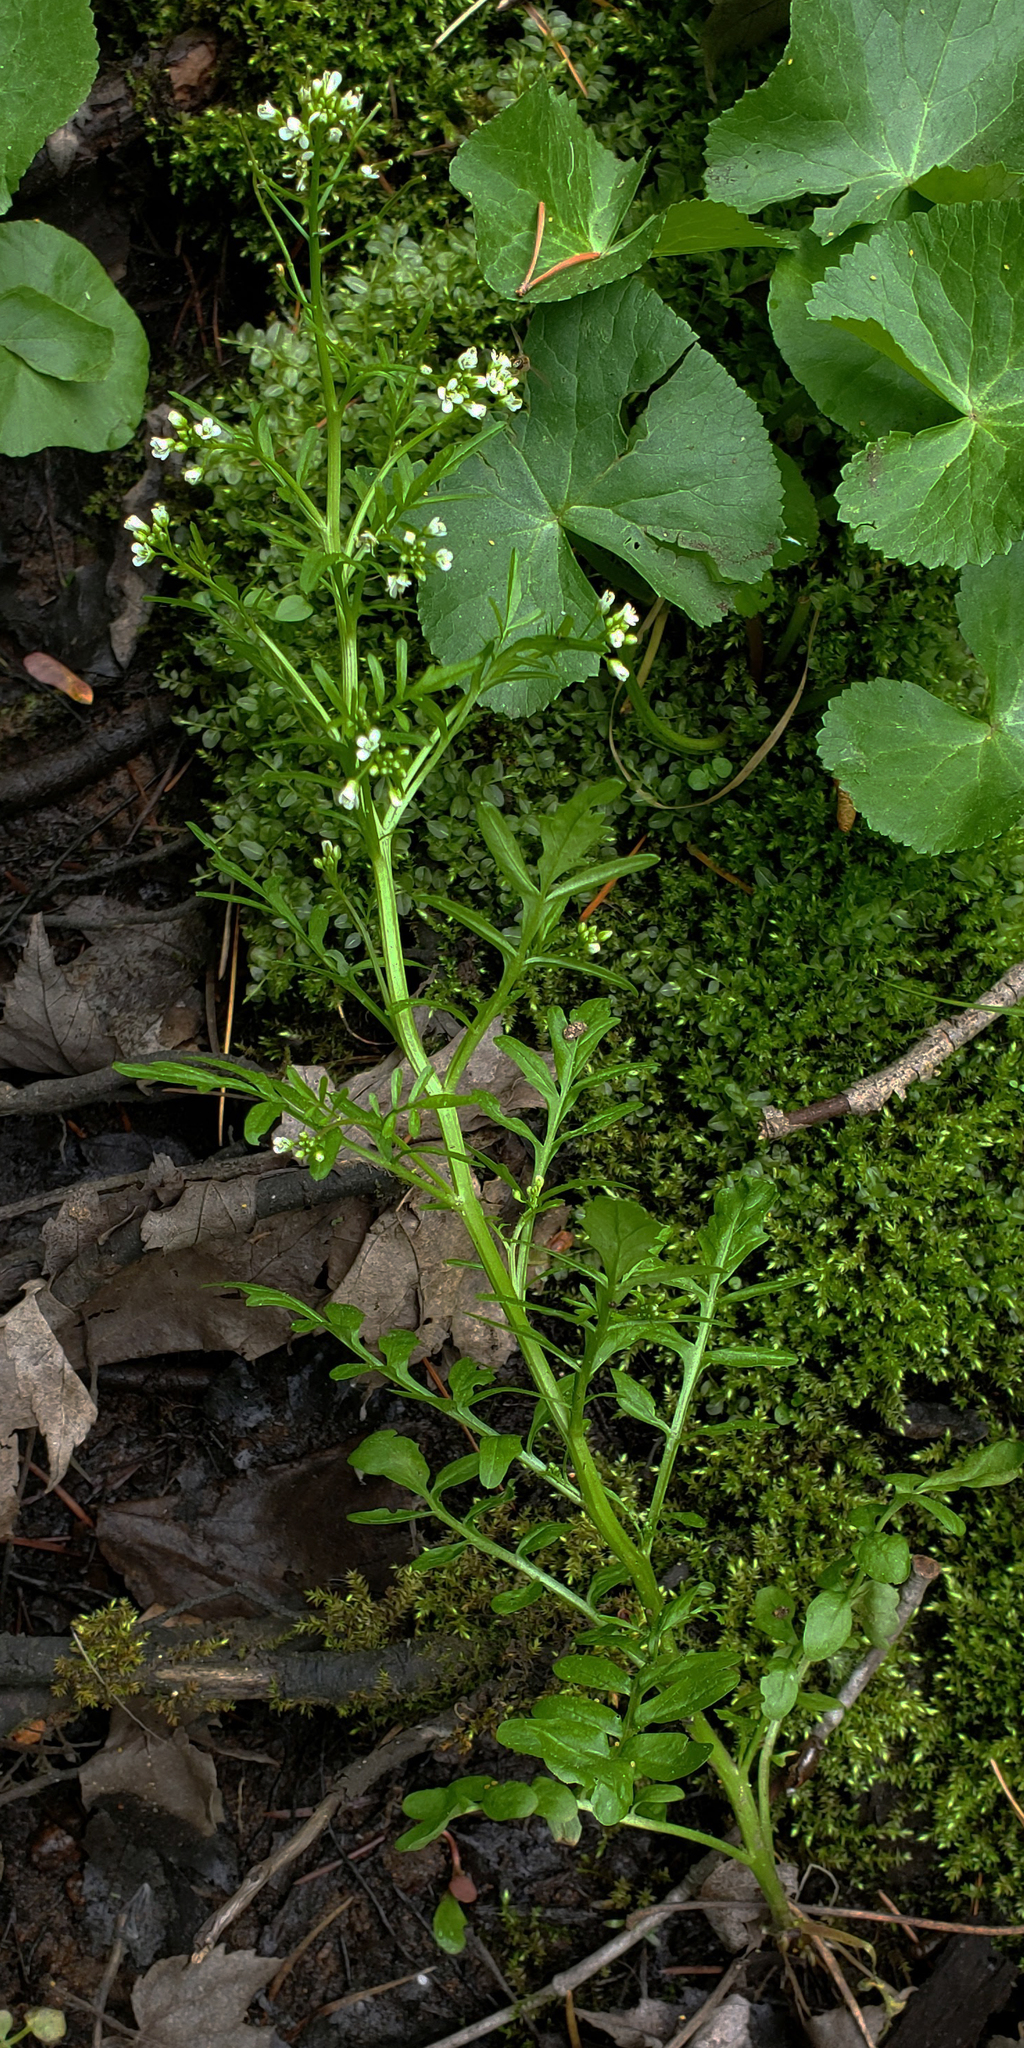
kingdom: Plantae
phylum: Tracheophyta
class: Magnoliopsida
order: Brassicales
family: Brassicaceae
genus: Cardamine
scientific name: Cardamine pensylvanica
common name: Pennsylvania bittercress
